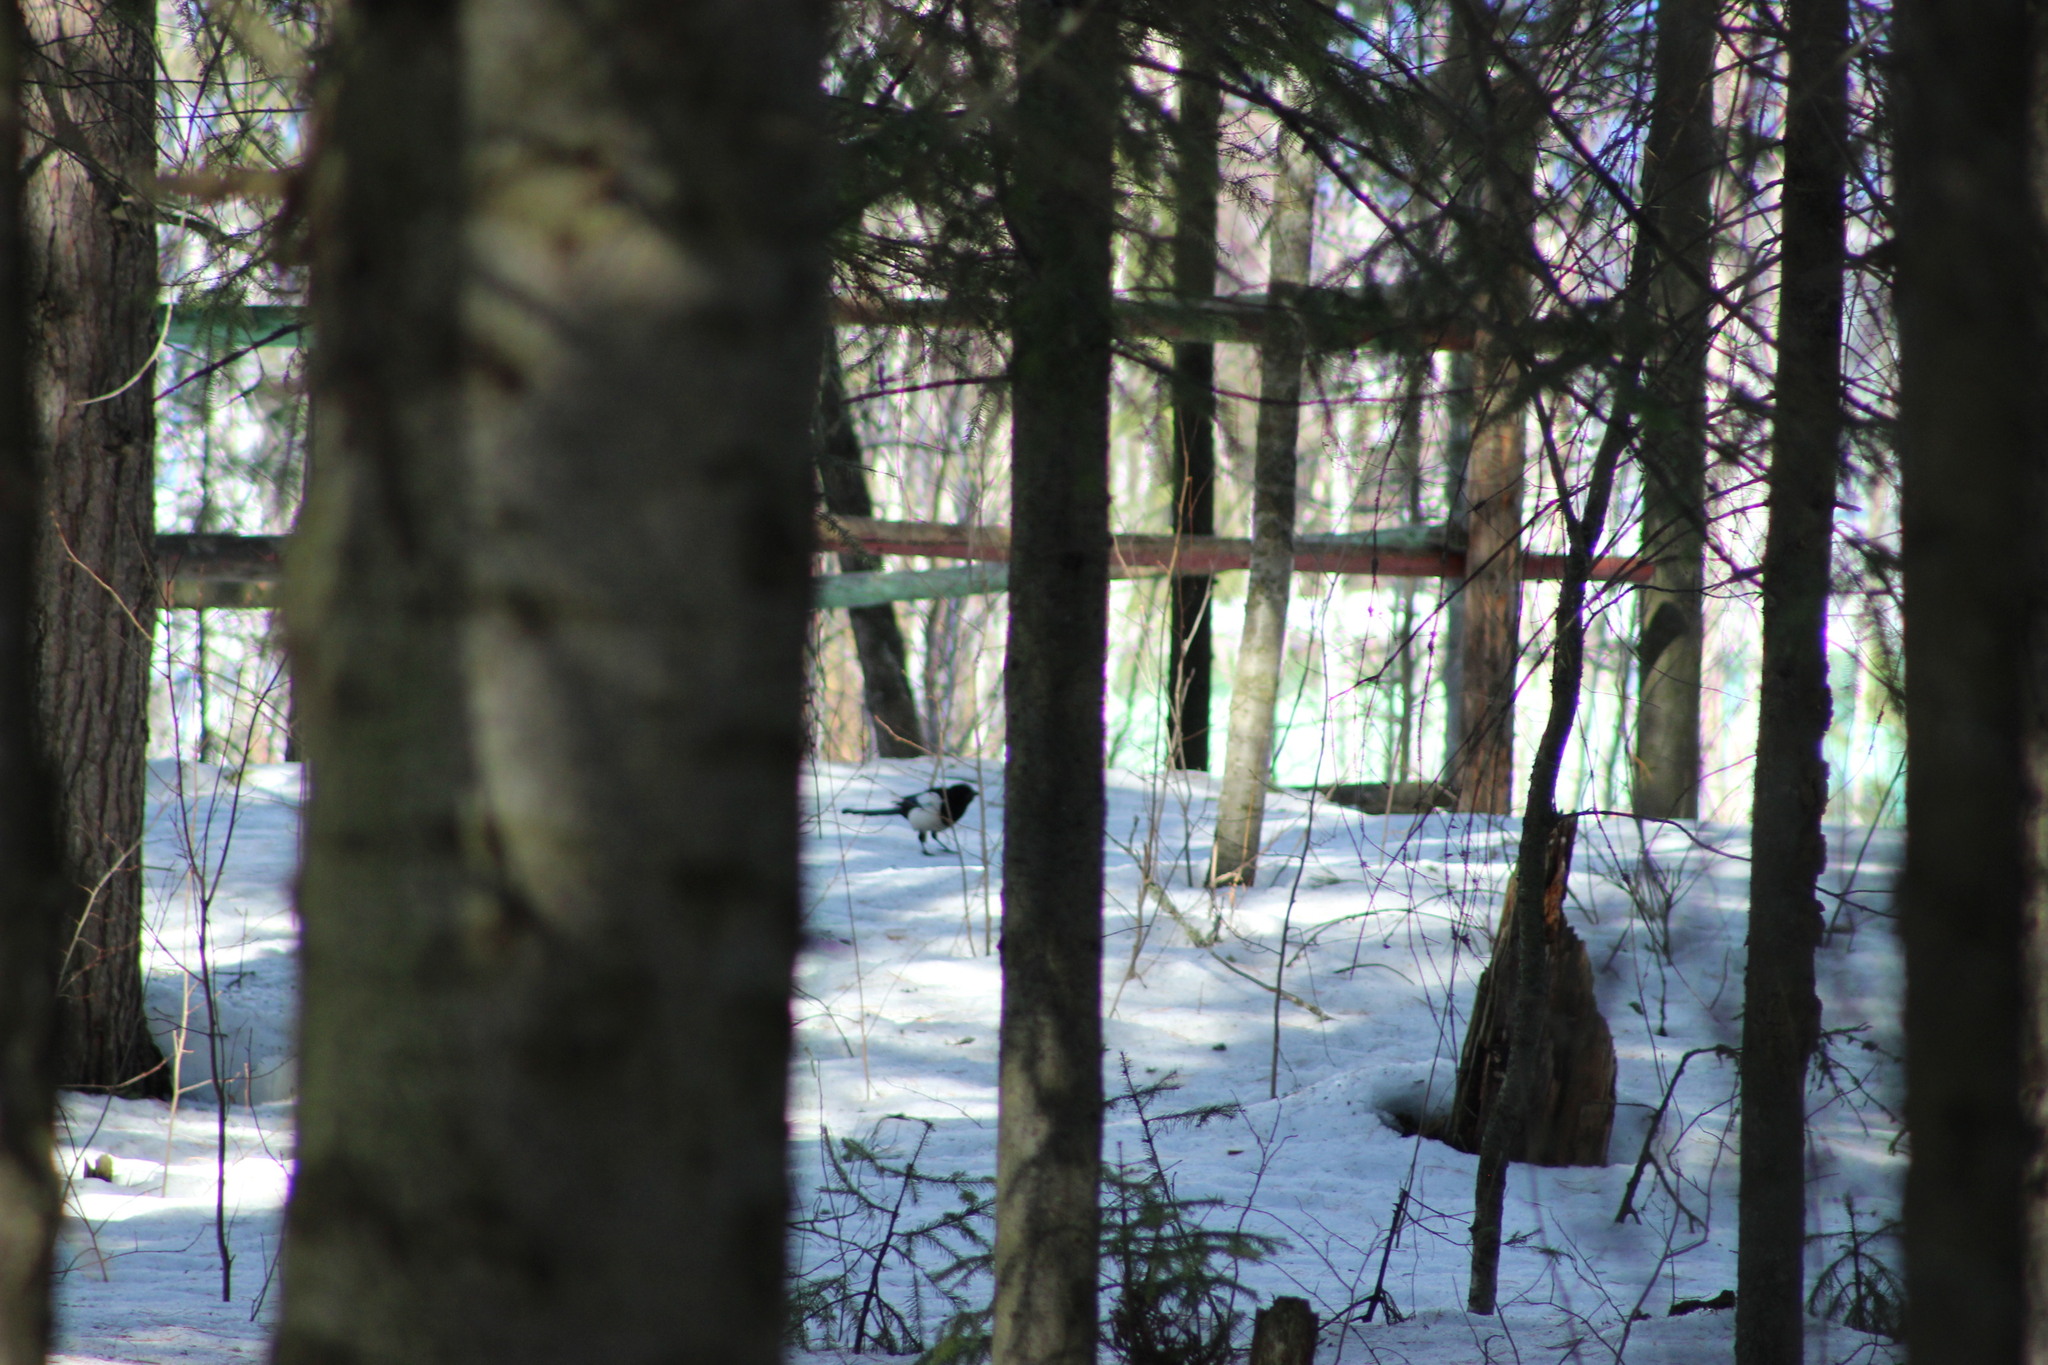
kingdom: Animalia
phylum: Chordata
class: Aves
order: Passeriformes
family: Corvidae
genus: Pica
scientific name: Pica pica
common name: Eurasian magpie
